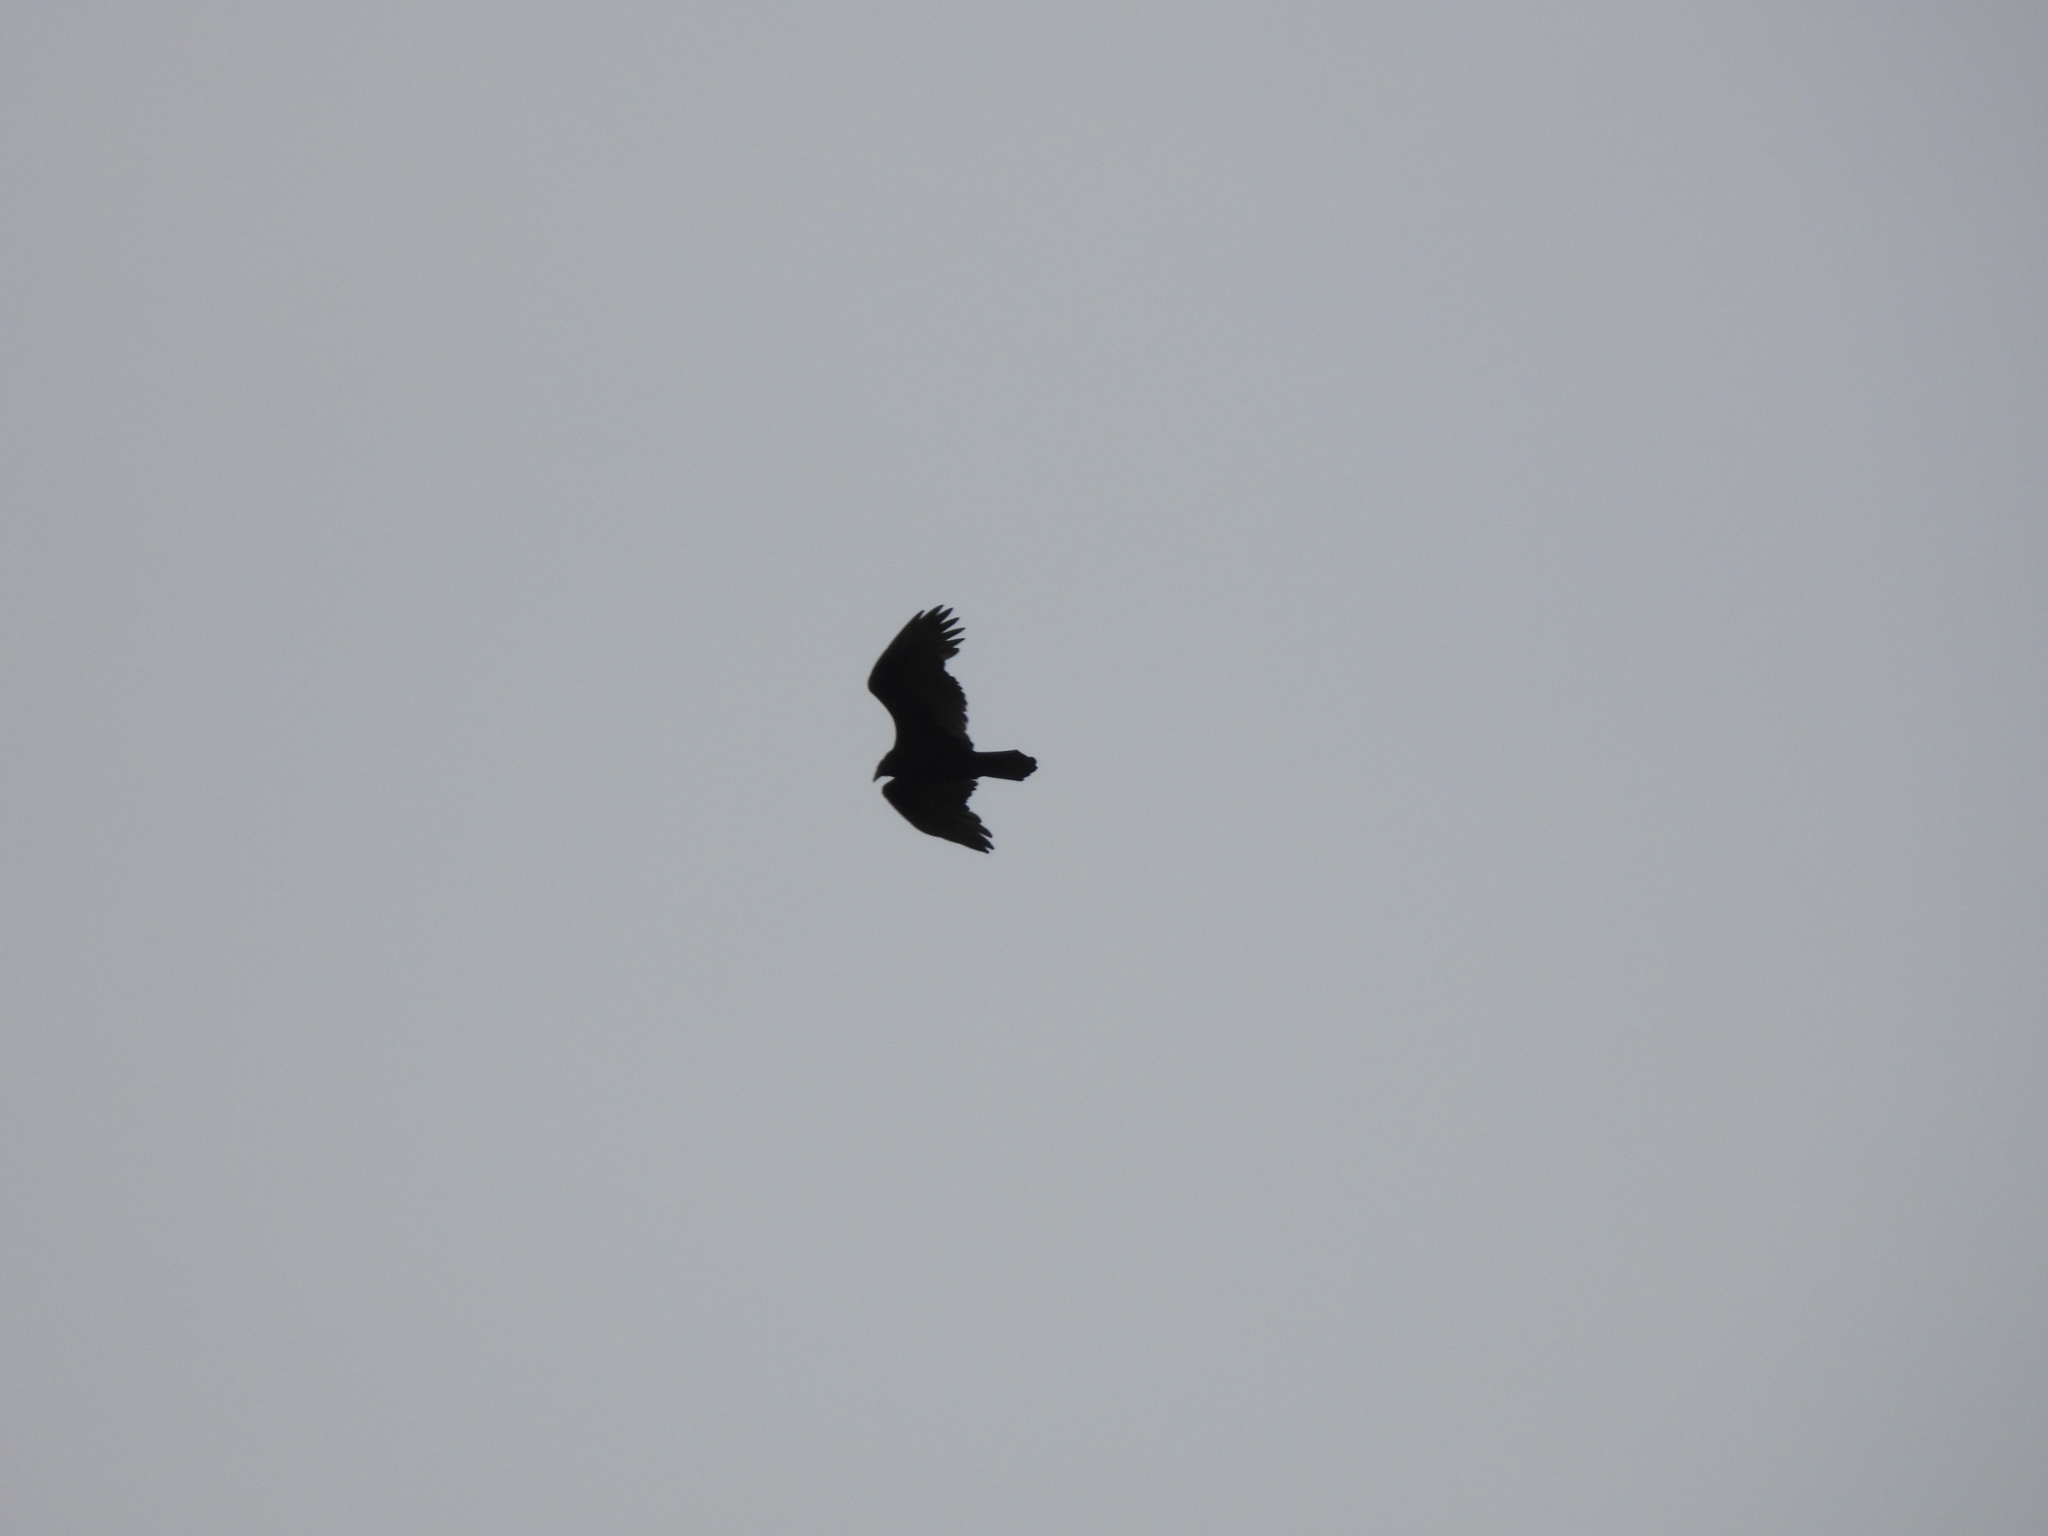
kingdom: Animalia
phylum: Chordata
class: Aves
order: Accipitriformes
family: Cathartidae
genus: Cathartes
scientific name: Cathartes aura
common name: Turkey vulture
